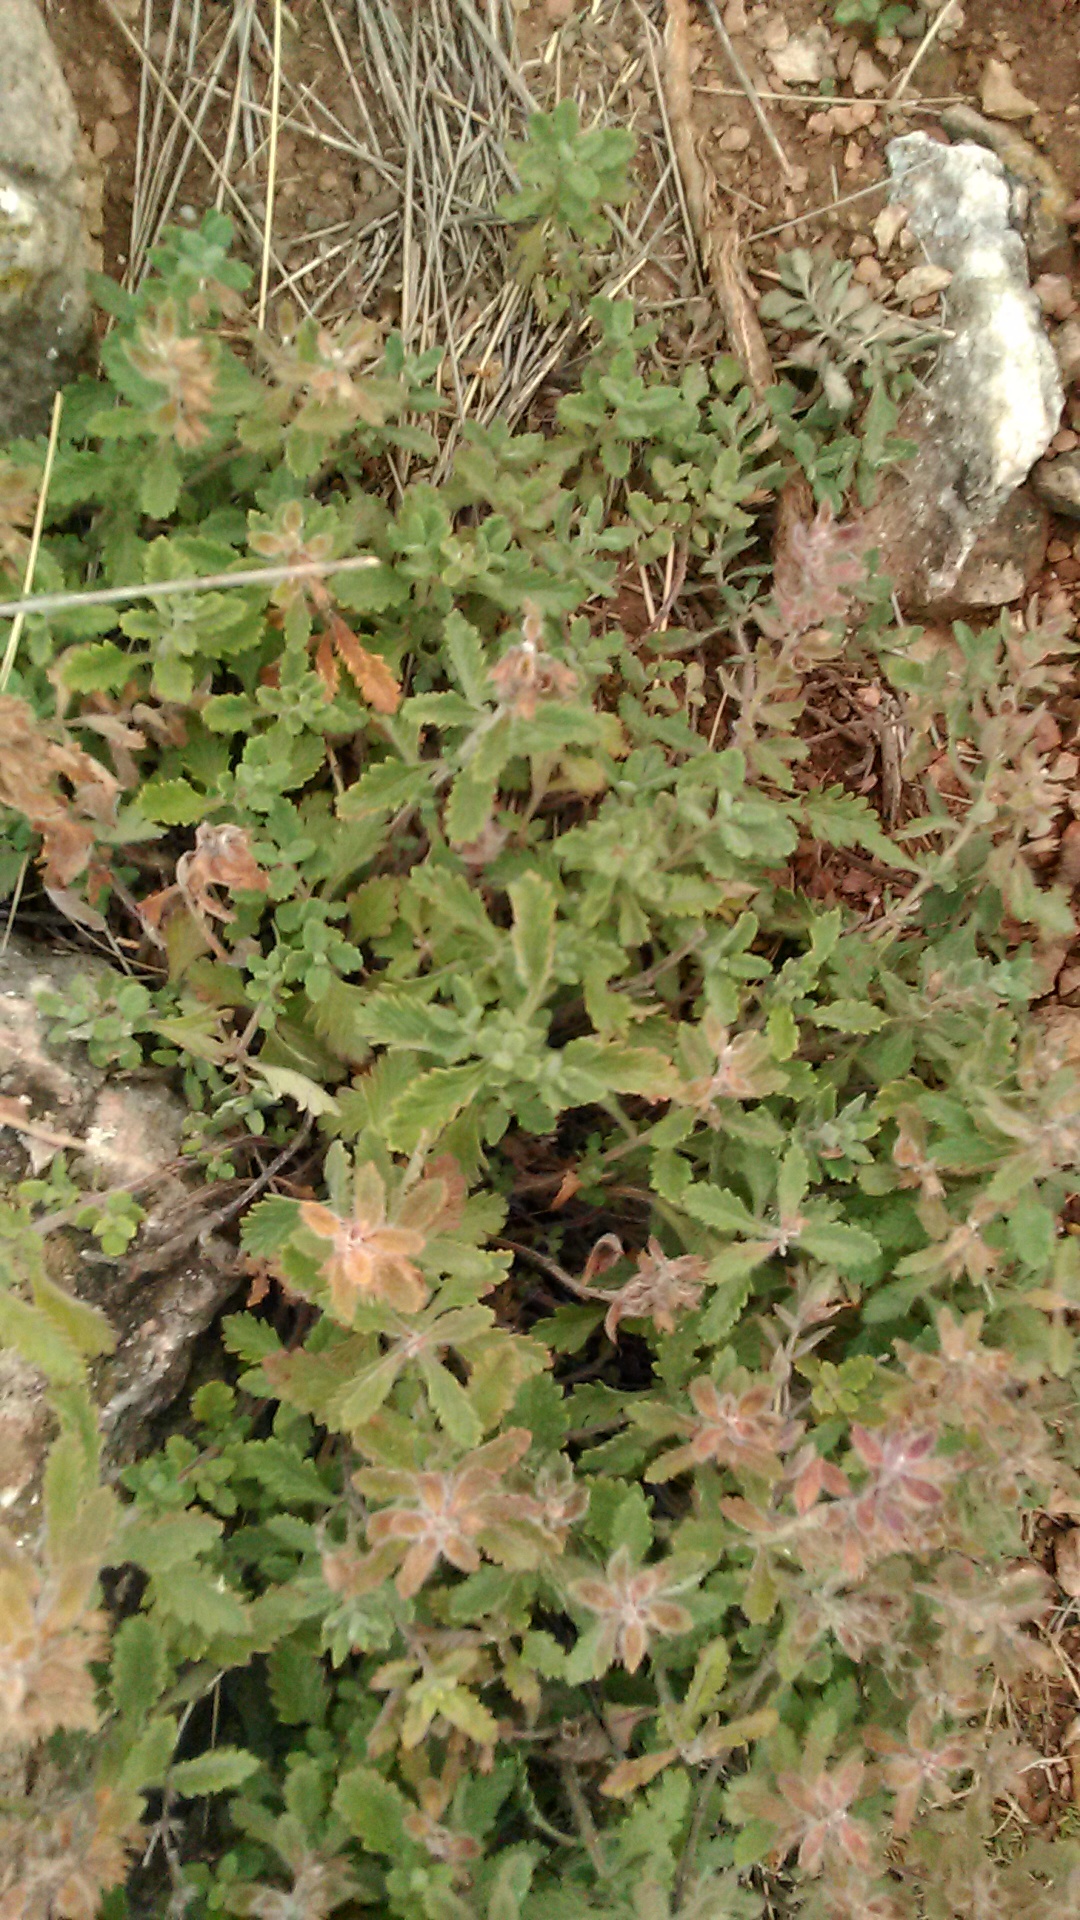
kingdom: Plantae
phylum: Tracheophyta
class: Magnoliopsida
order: Lamiales
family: Lamiaceae
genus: Teucrium
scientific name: Teucrium chamaedrys
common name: Wall germander
